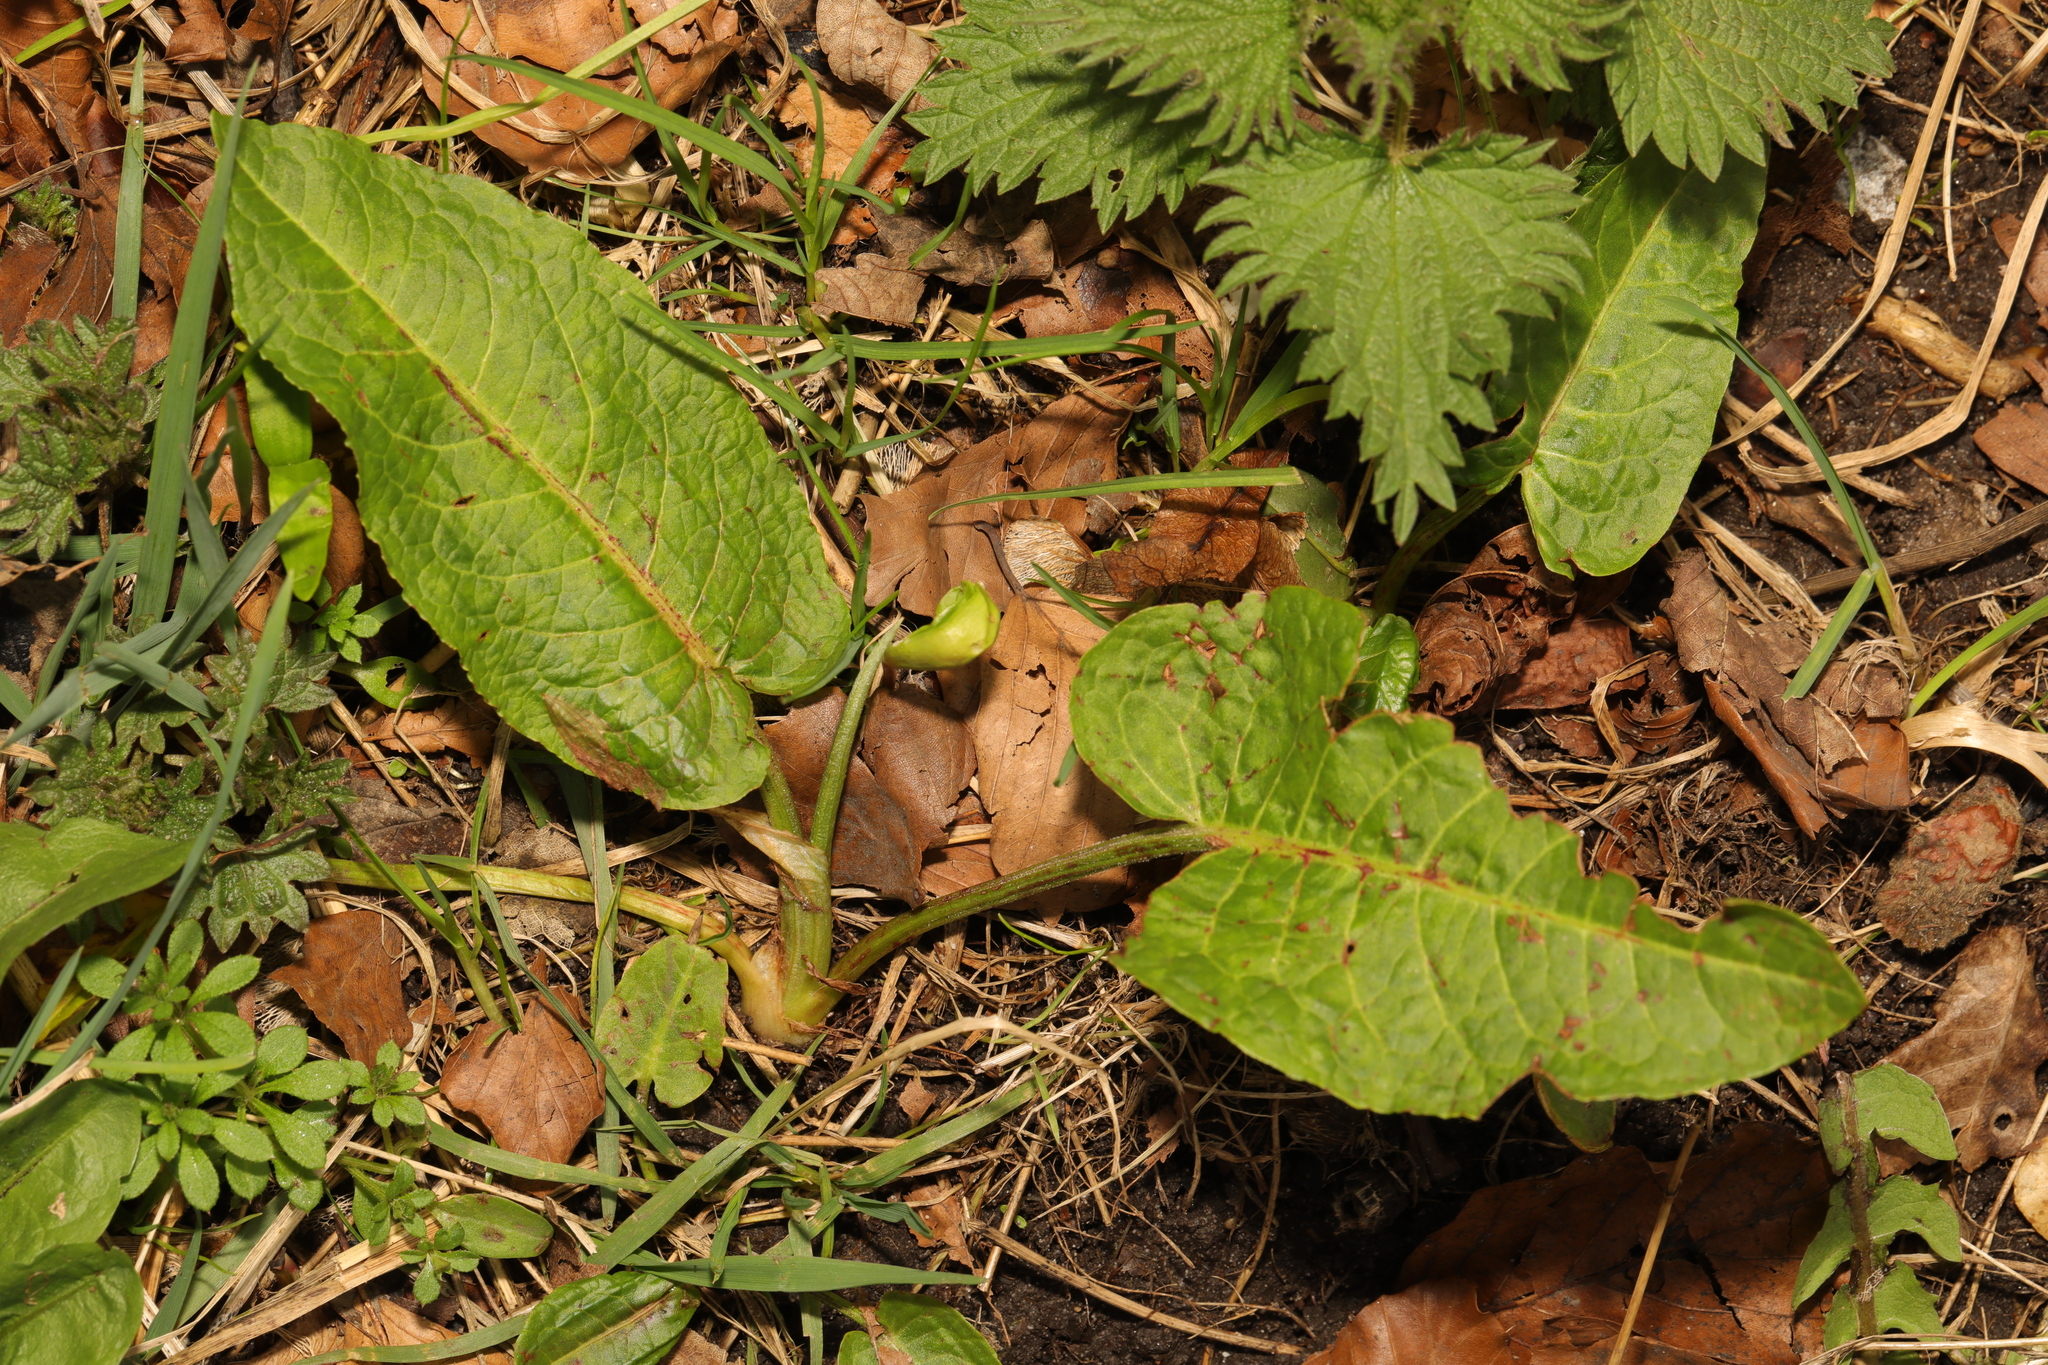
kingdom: Plantae
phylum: Tracheophyta
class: Magnoliopsida
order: Caryophyllales
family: Polygonaceae
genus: Rumex
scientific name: Rumex obtusifolius
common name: Bitter dock
